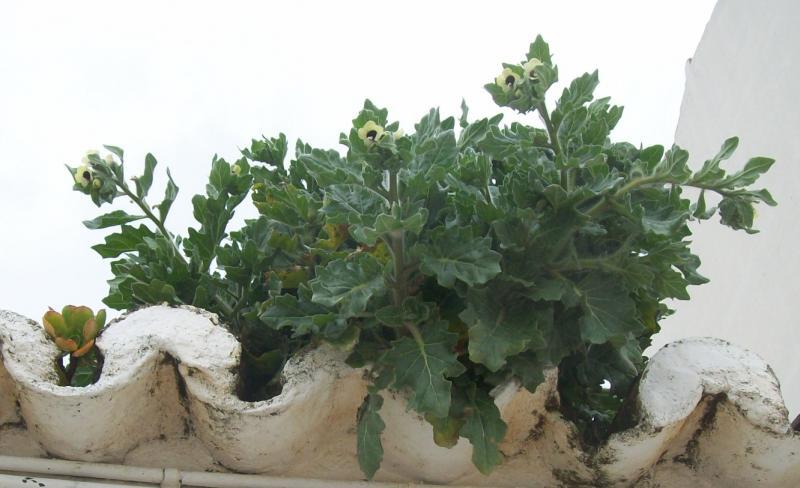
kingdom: Plantae
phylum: Tracheophyta
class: Magnoliopsida
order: Solanales
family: Solanaceae
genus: Hyoscyamus
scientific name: Hyoscyamus albus
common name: White henbane
